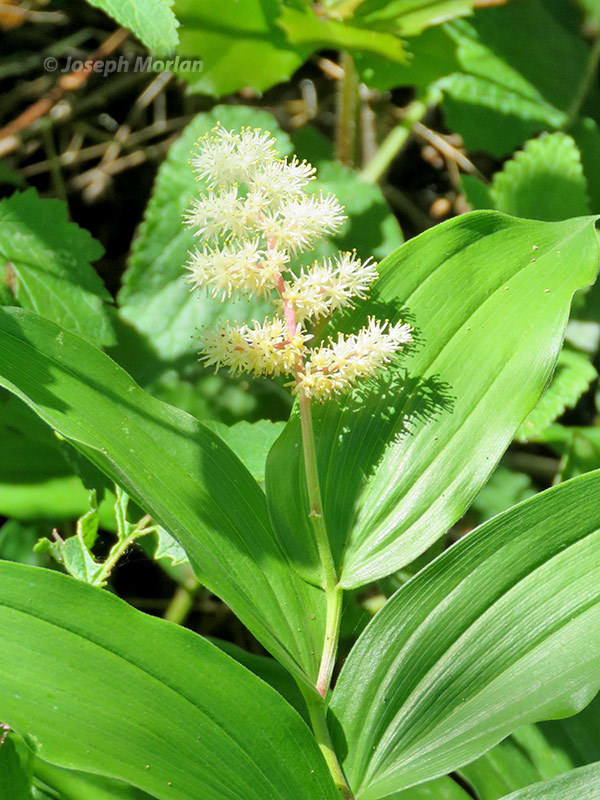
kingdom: Plantae
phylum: Tracheophyta
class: Liliopsida
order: Asparagales
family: Asparagaceae
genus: Maianthemum
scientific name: Maianthemum racemosum
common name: False spikenard
